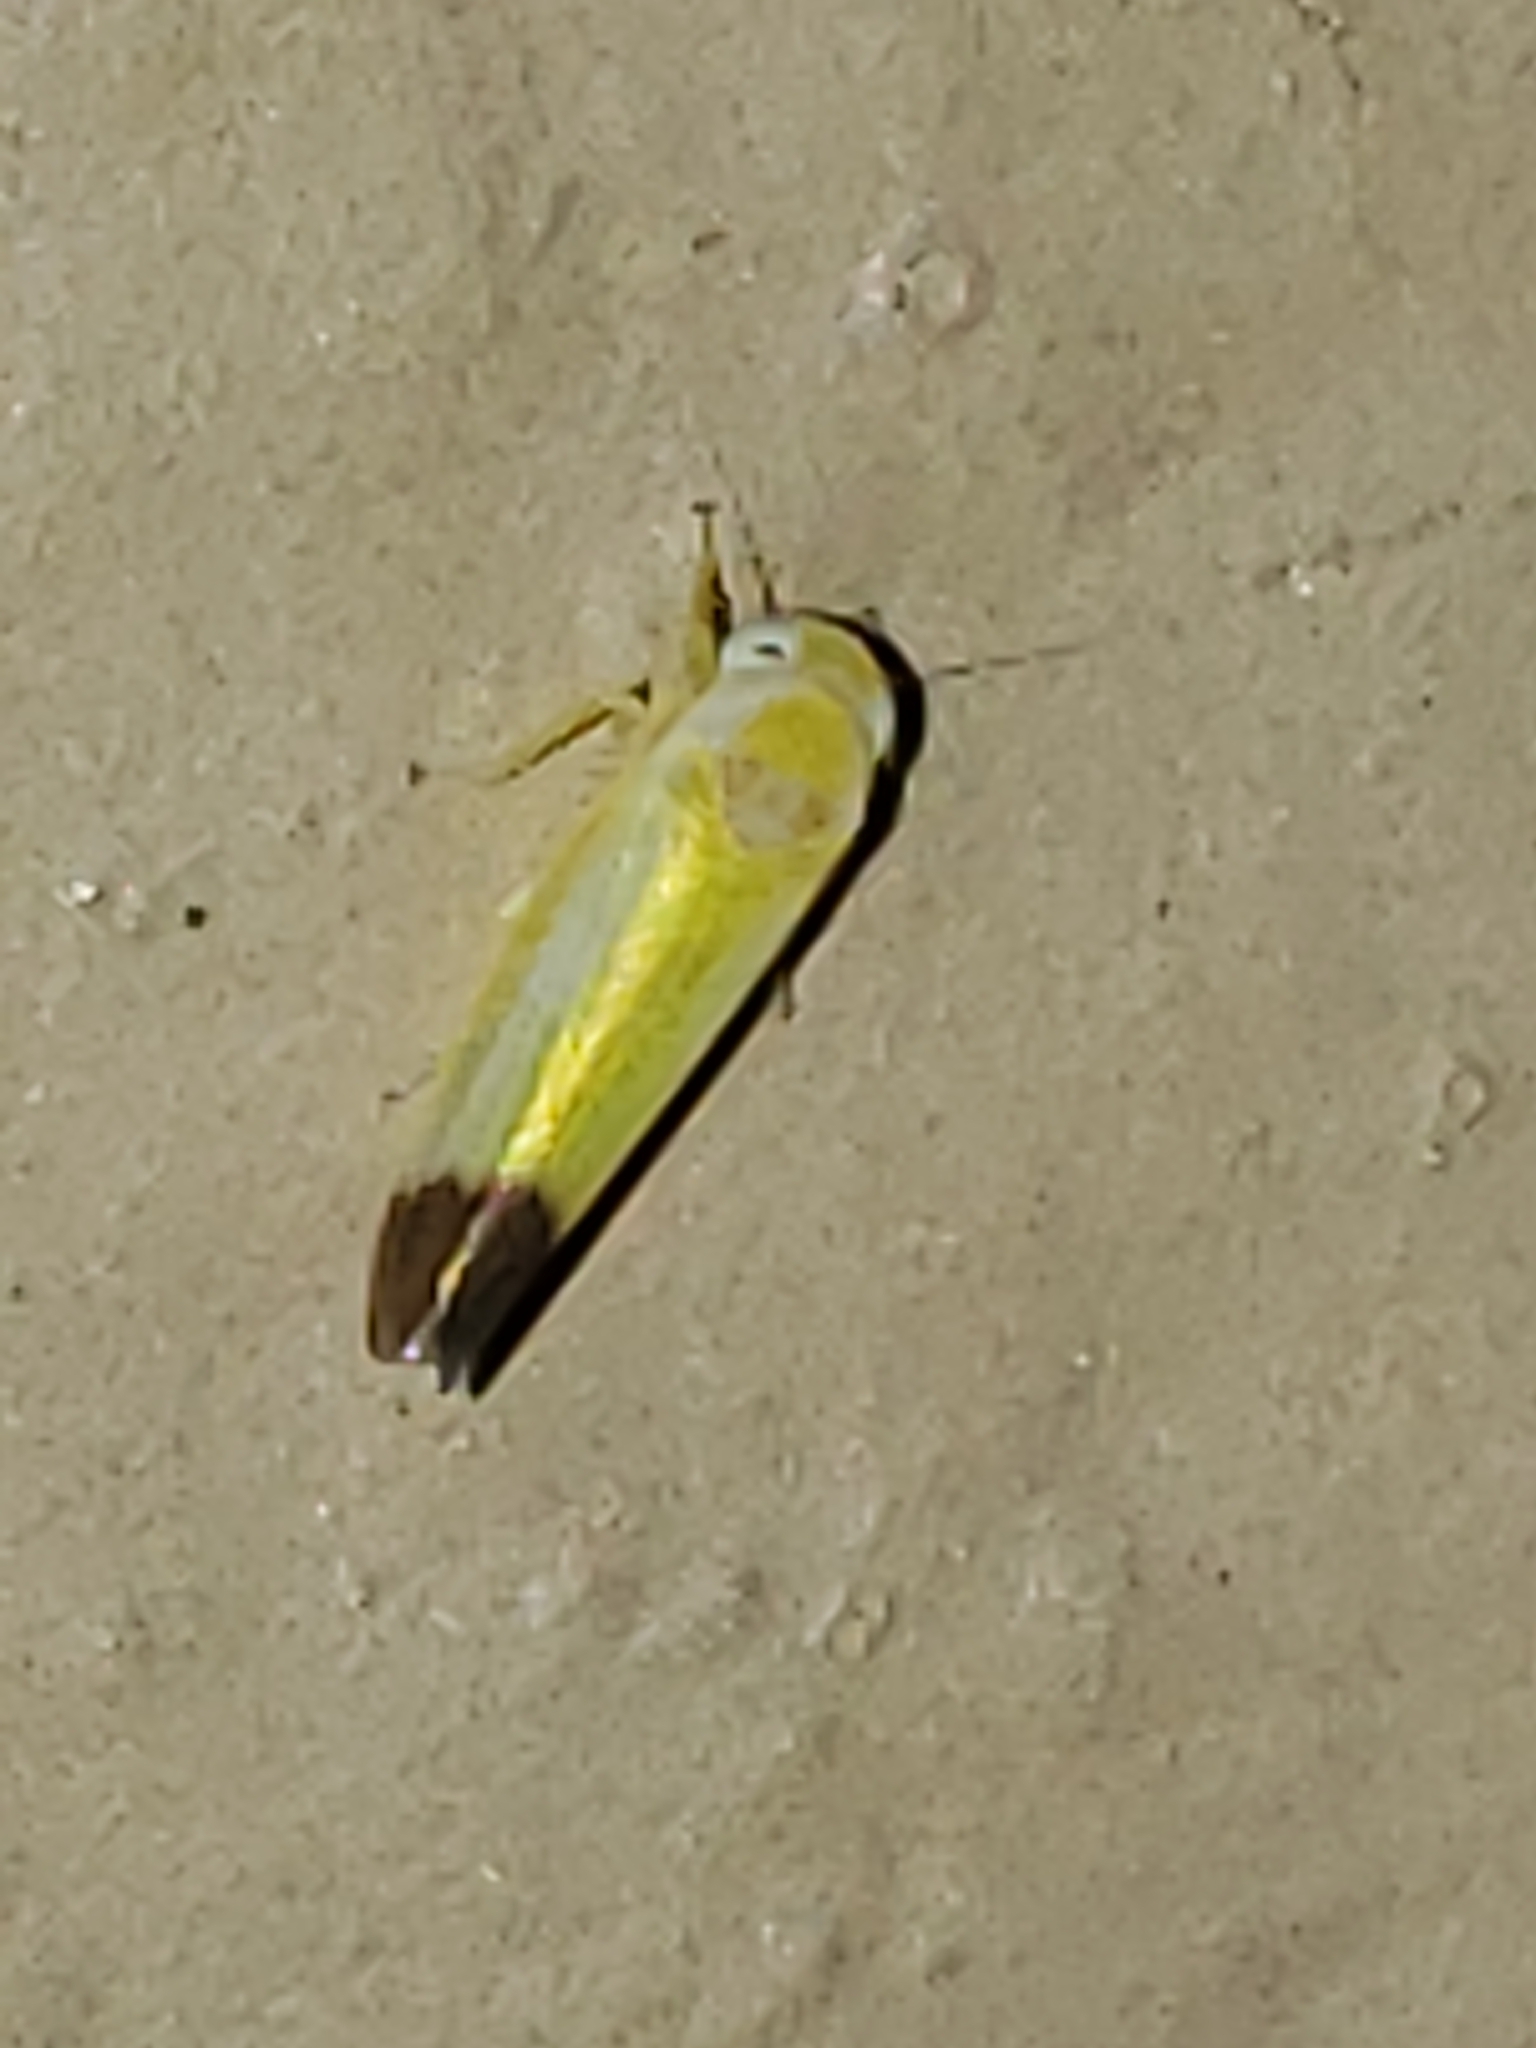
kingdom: Animalia
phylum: Arthropoda
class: Insecta
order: Hemiptera
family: Cicadellidae
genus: Alebra
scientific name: Alebra bicincta
